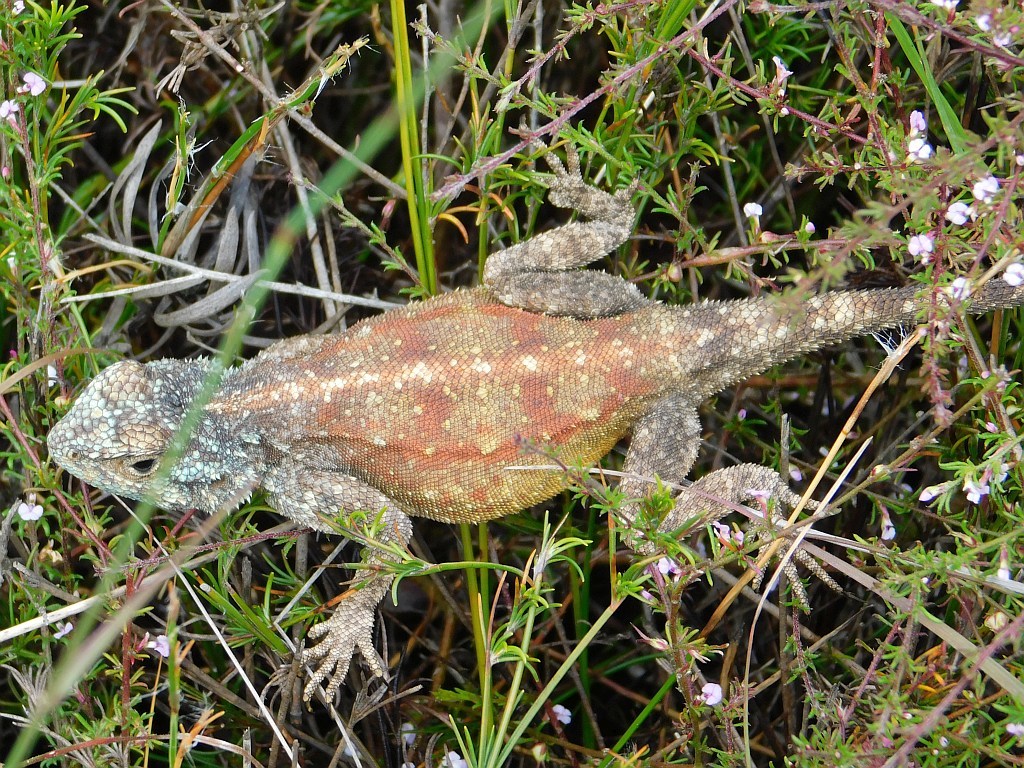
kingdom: Animalia
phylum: Chordata
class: Squamata
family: Agamidae
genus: Agama
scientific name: Agama atra
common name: Southern african rock agama
